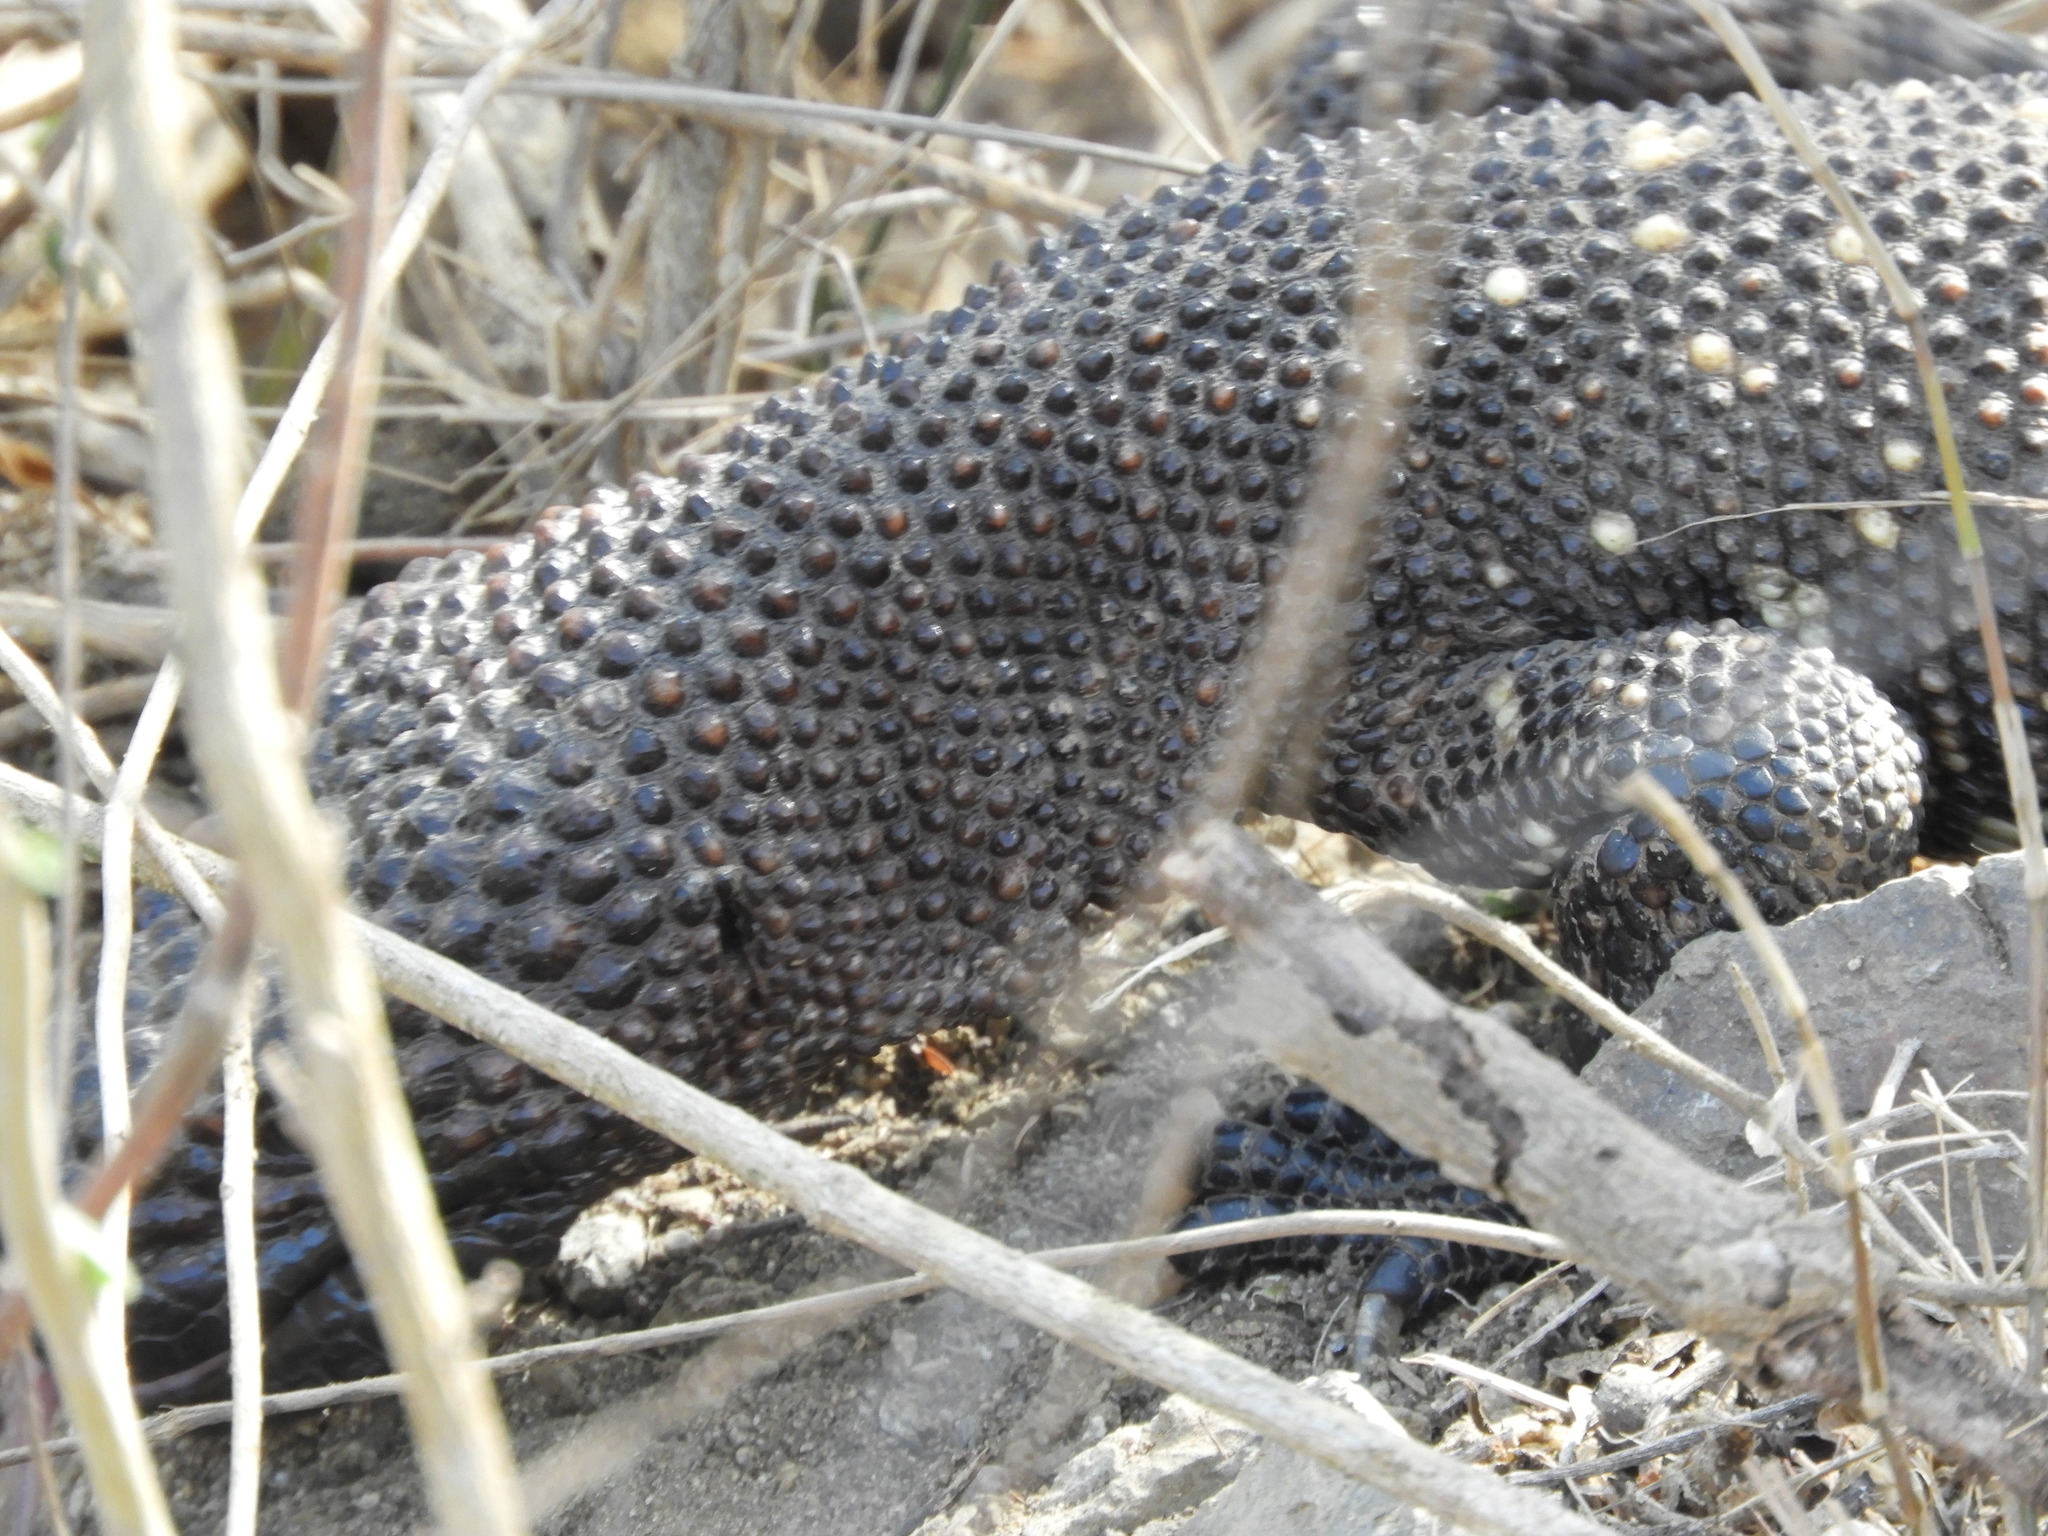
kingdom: Animalia
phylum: Chordata
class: Squamata
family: Helodermatidae
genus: Heloderma
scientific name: Heloderma horridum
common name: Mexican beaded lizard
